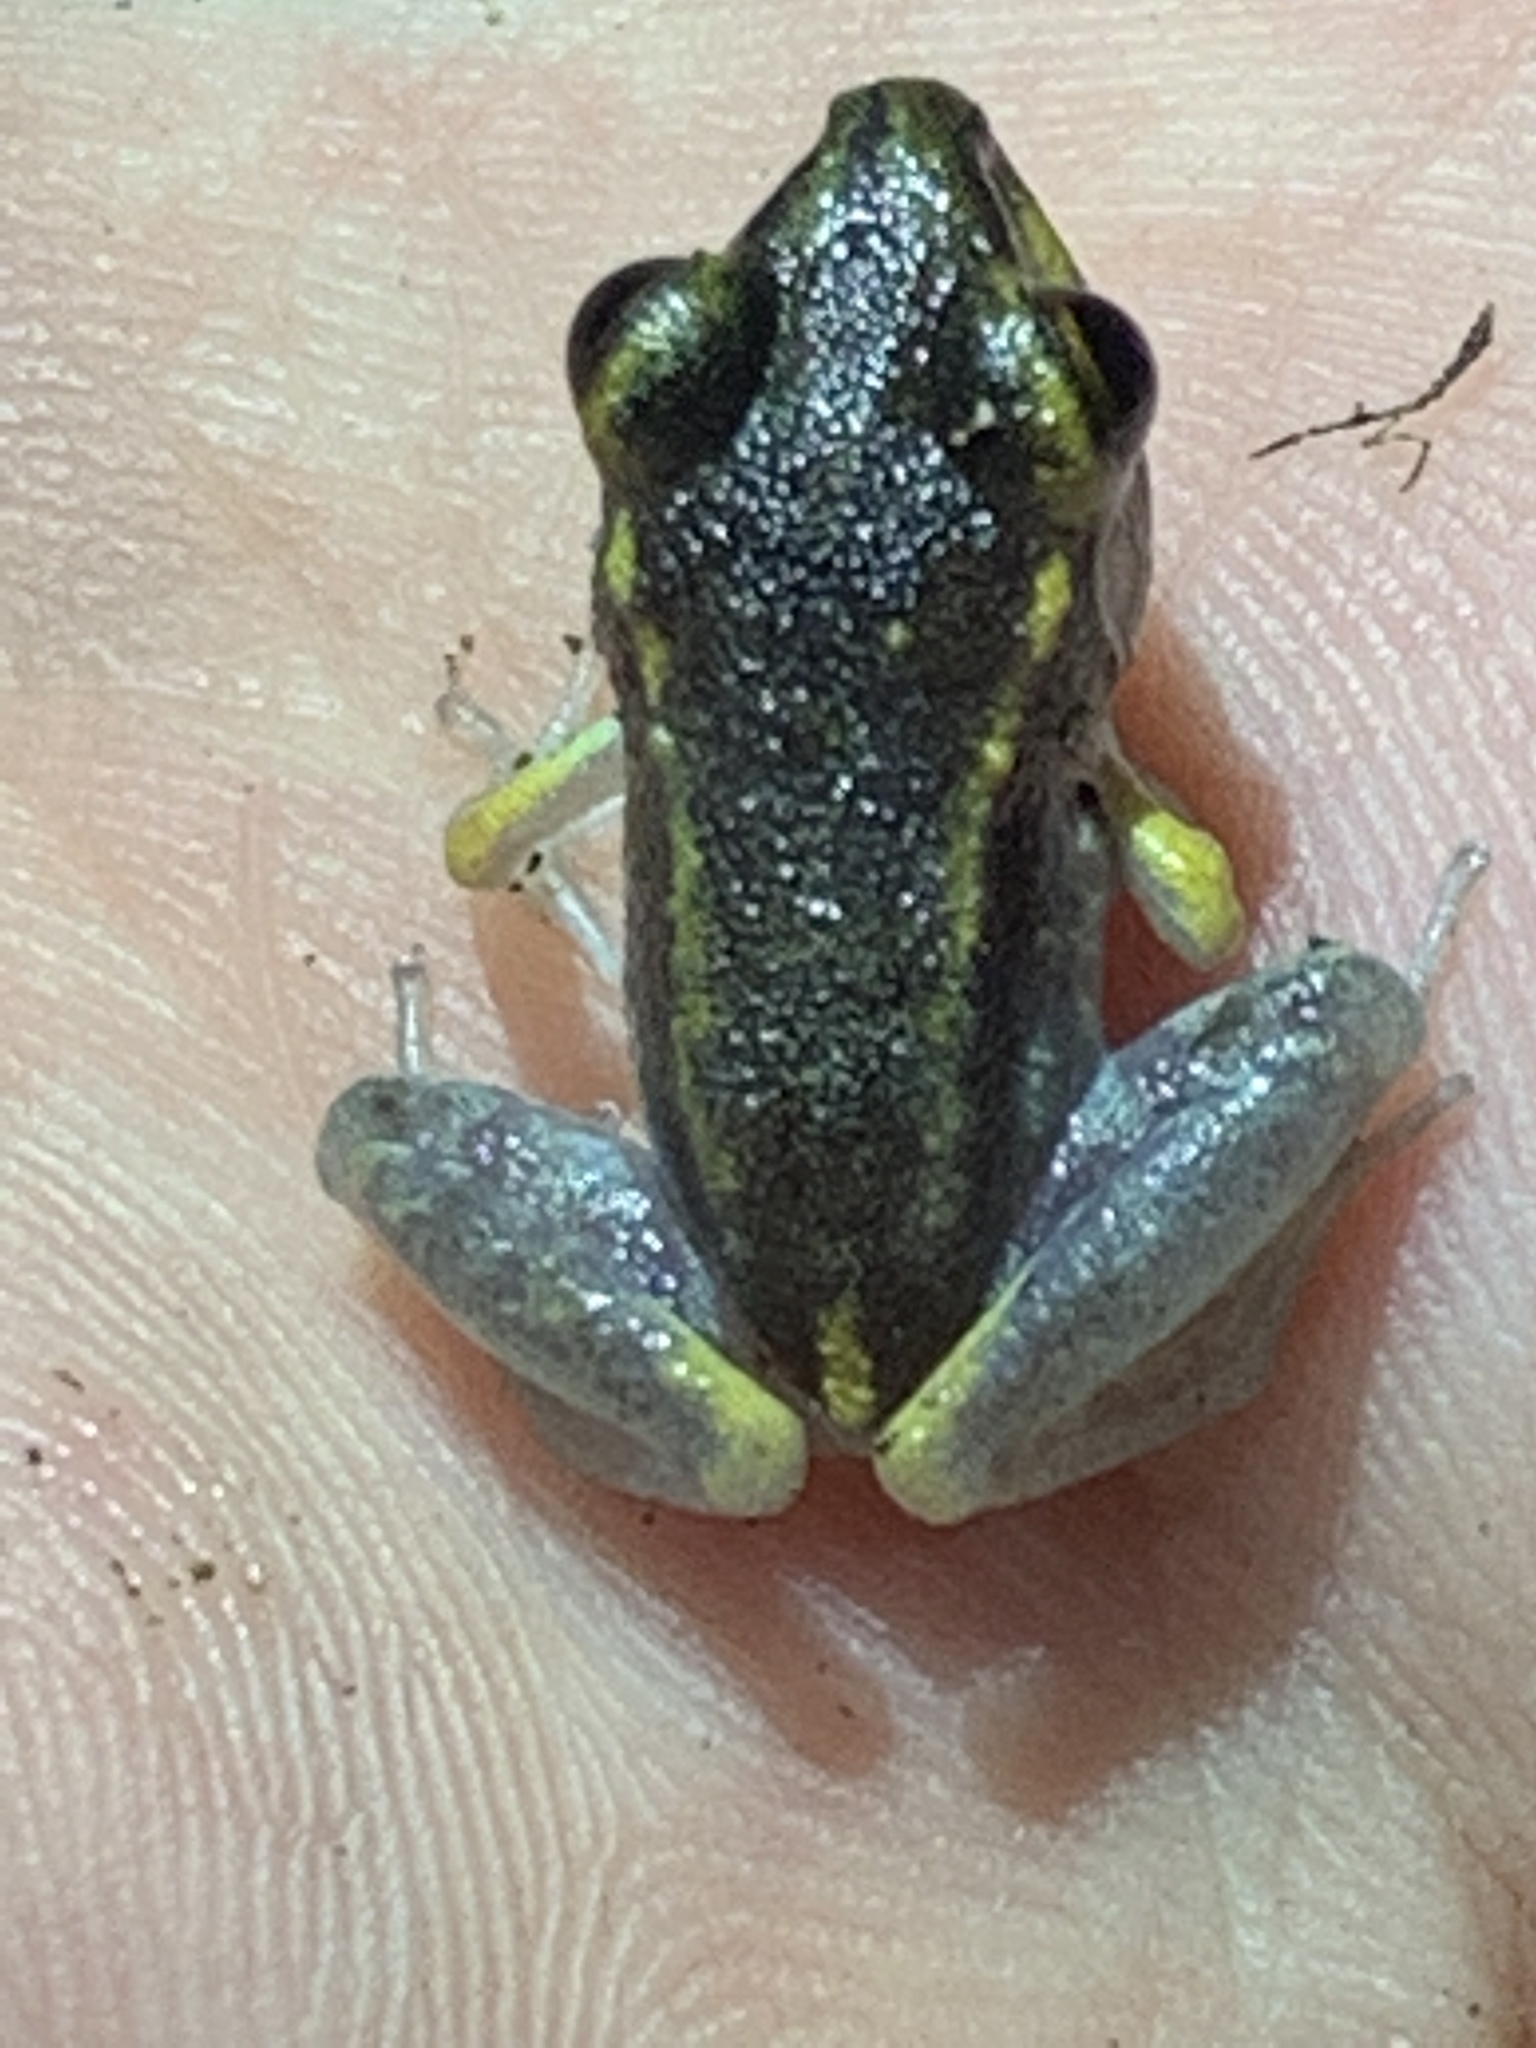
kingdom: Animalia
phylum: Chordata
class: Amphibia
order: Anura
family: Craugastoridae
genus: Pristimantis
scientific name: Pristimantis gaigei
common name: Fort randolph robber frog
